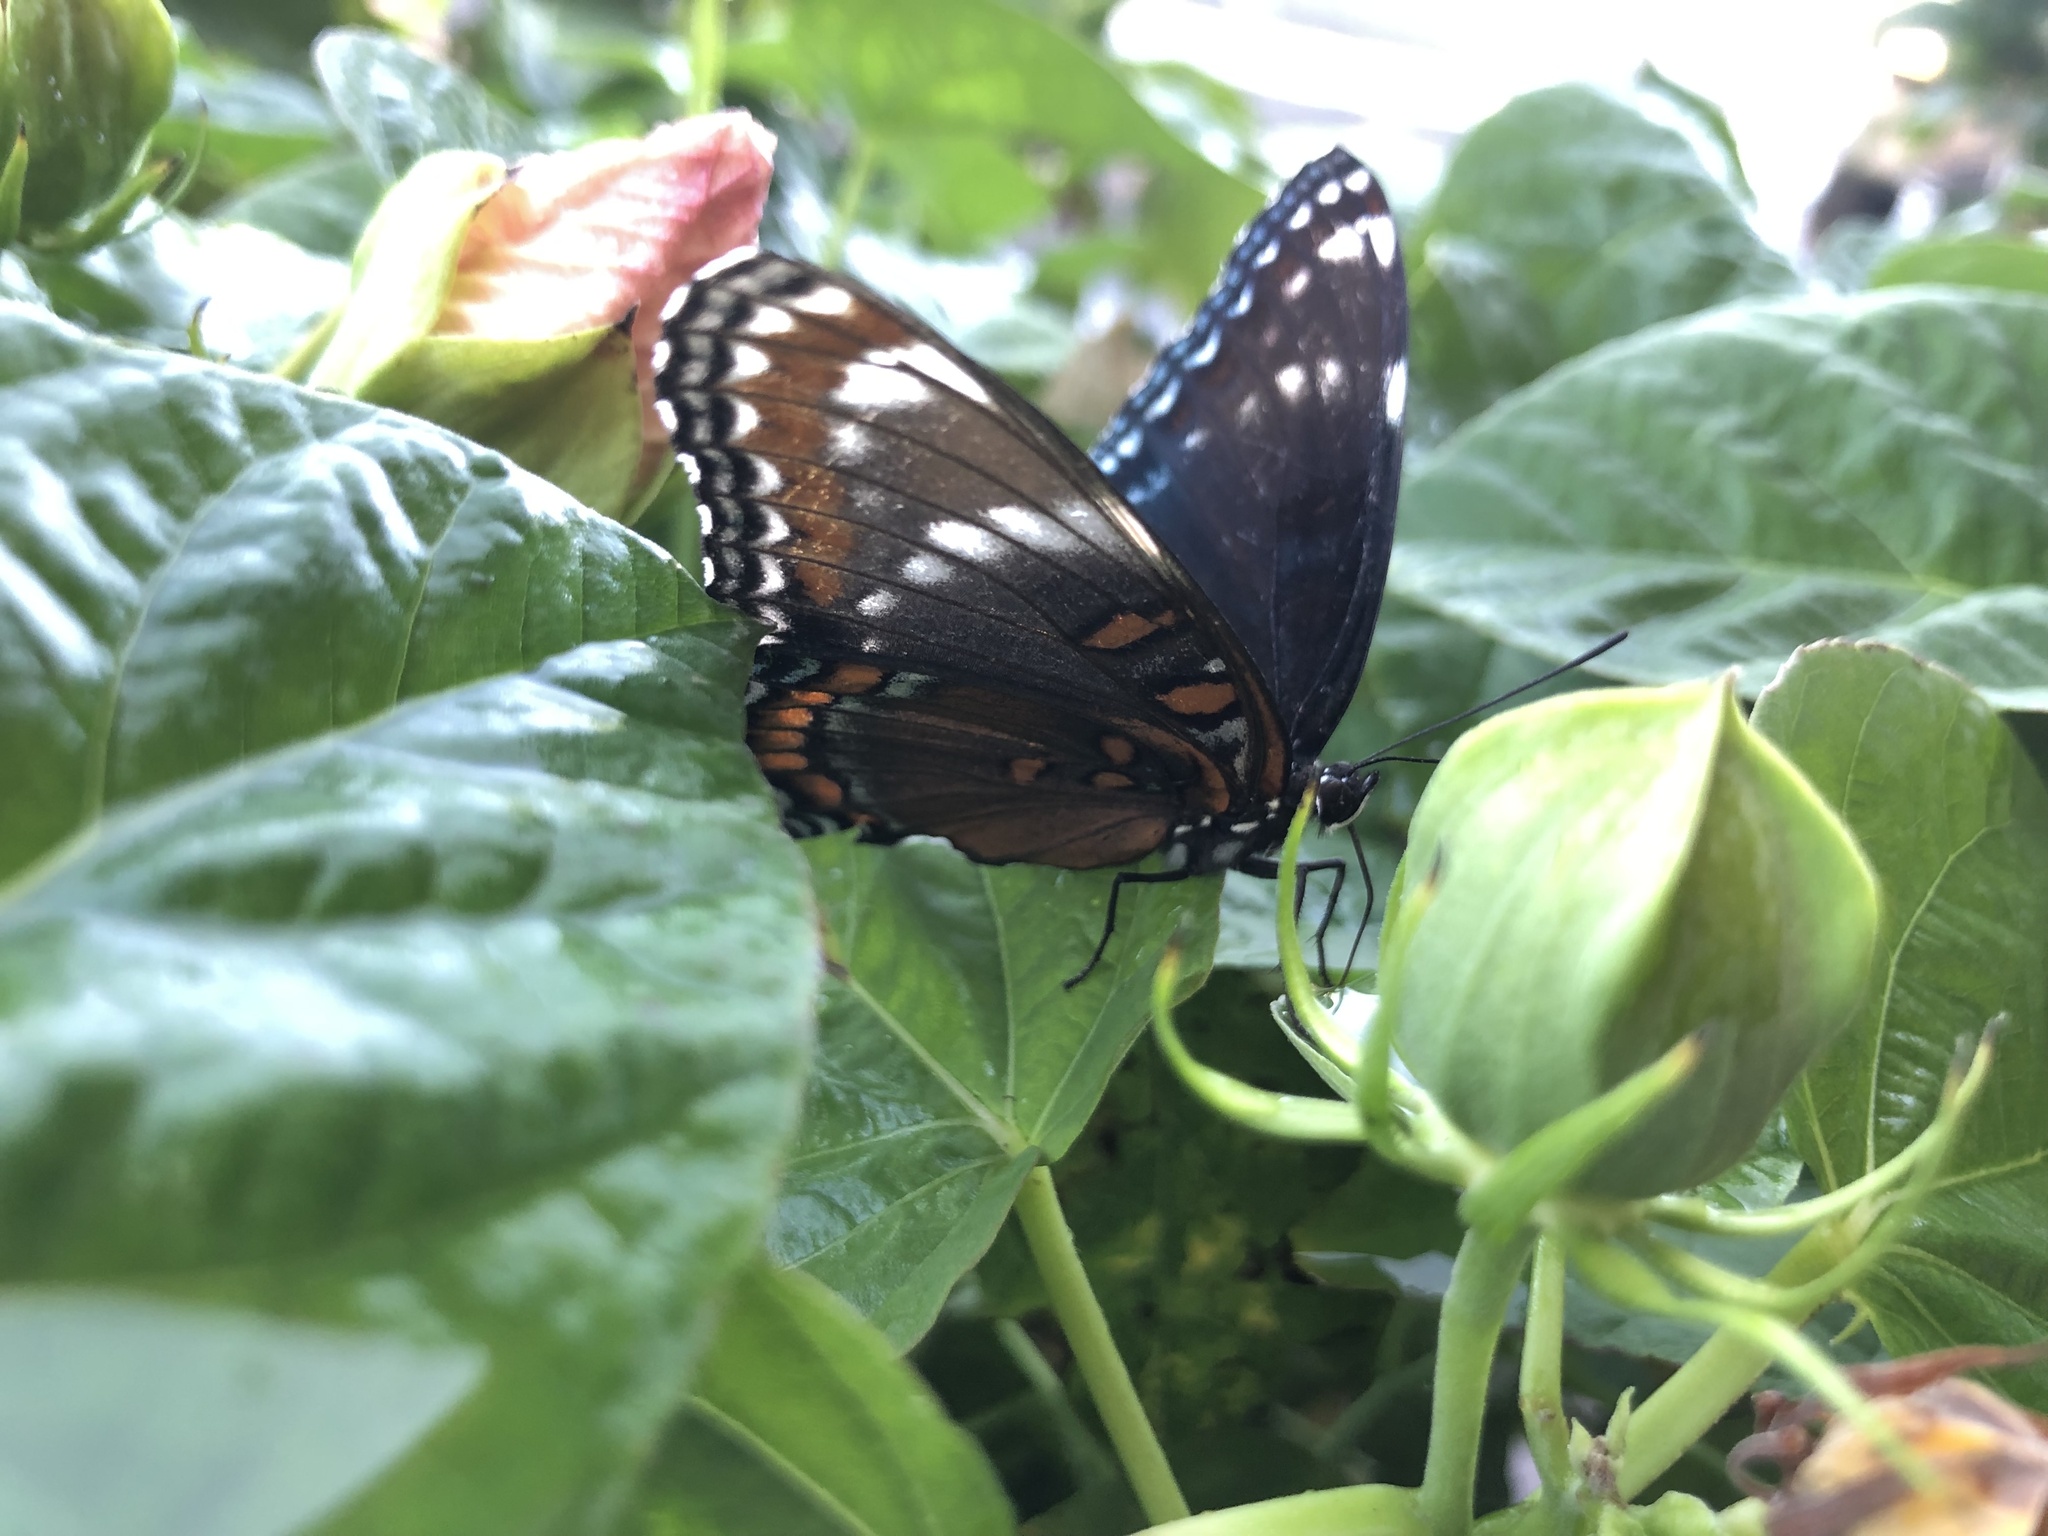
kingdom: Animalia
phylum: Arthropoda
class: Insecta
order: Lepidoptera
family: Nymphalidae
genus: Limenitis
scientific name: Limenitis
